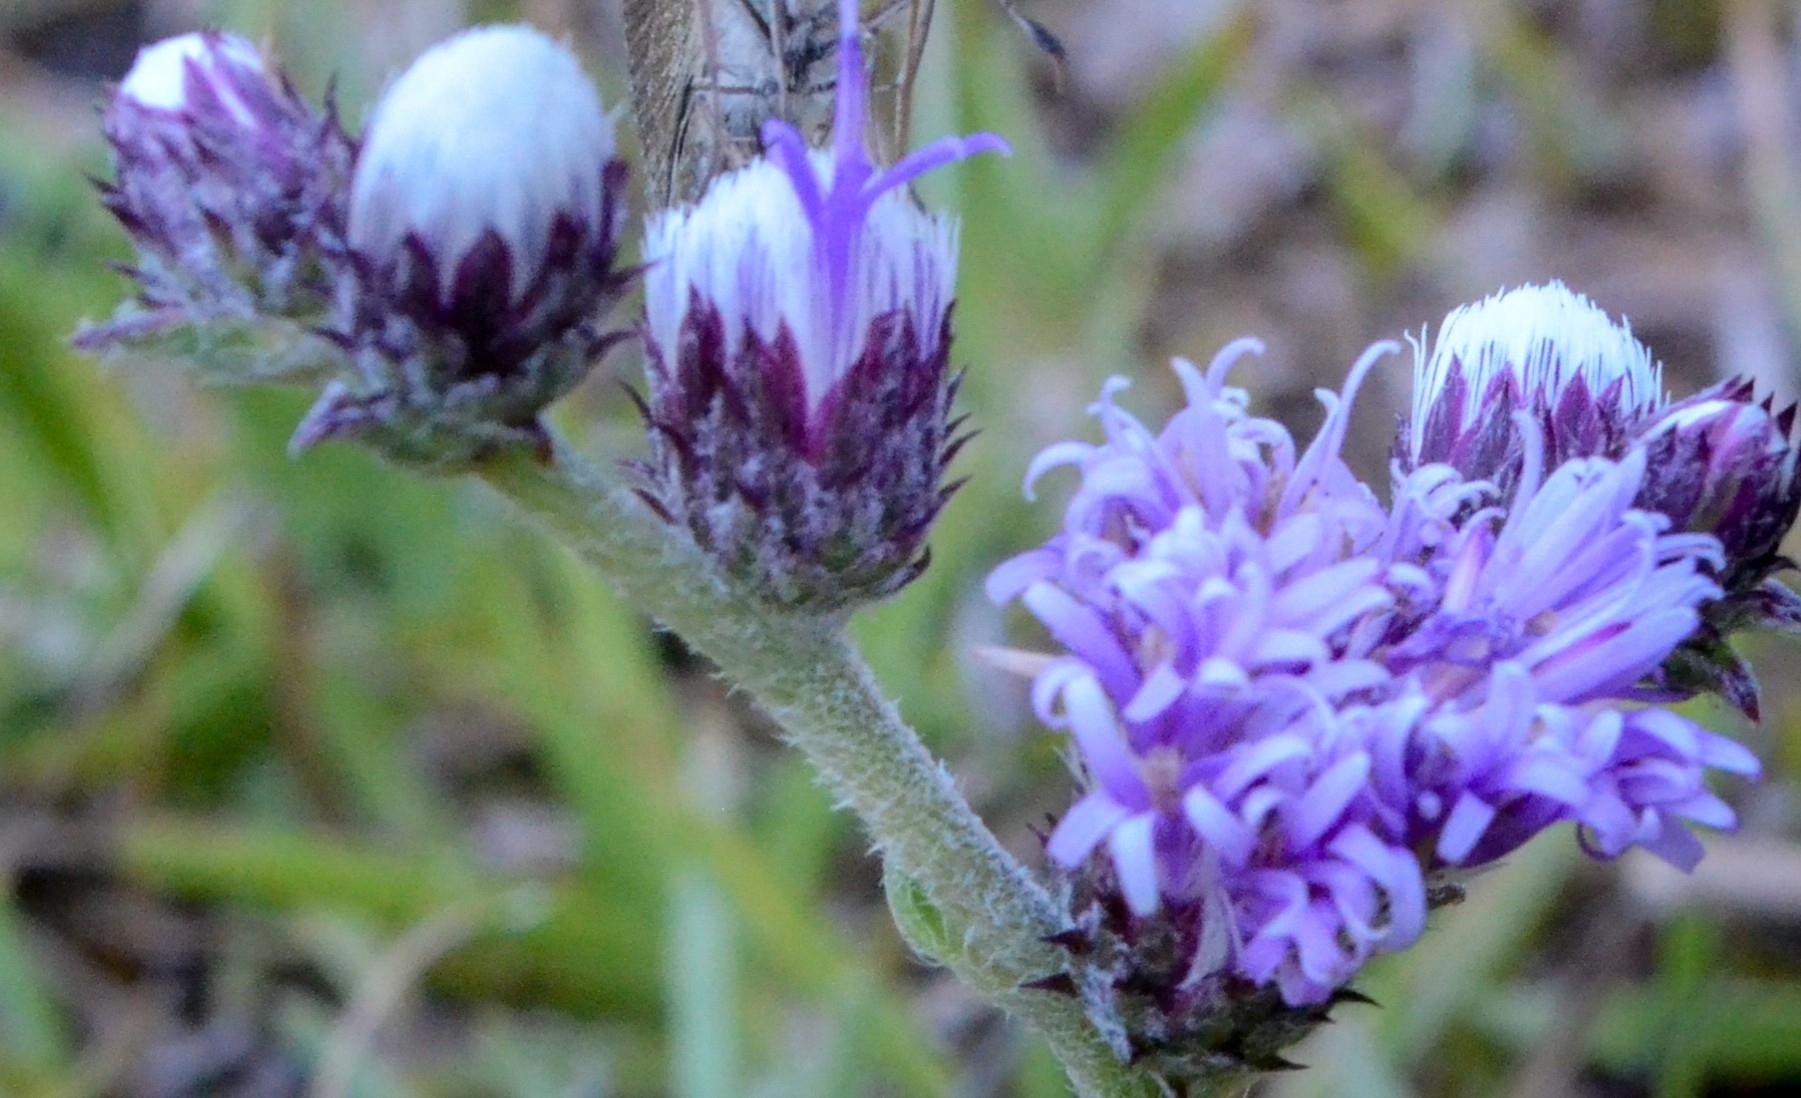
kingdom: Plantae
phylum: Tracheophyta
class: Magnoliopsida
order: Asterales
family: Asteraceae
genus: Chrysolaena
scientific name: Chrysolaena flexuosa
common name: Zig-zag vernonia
